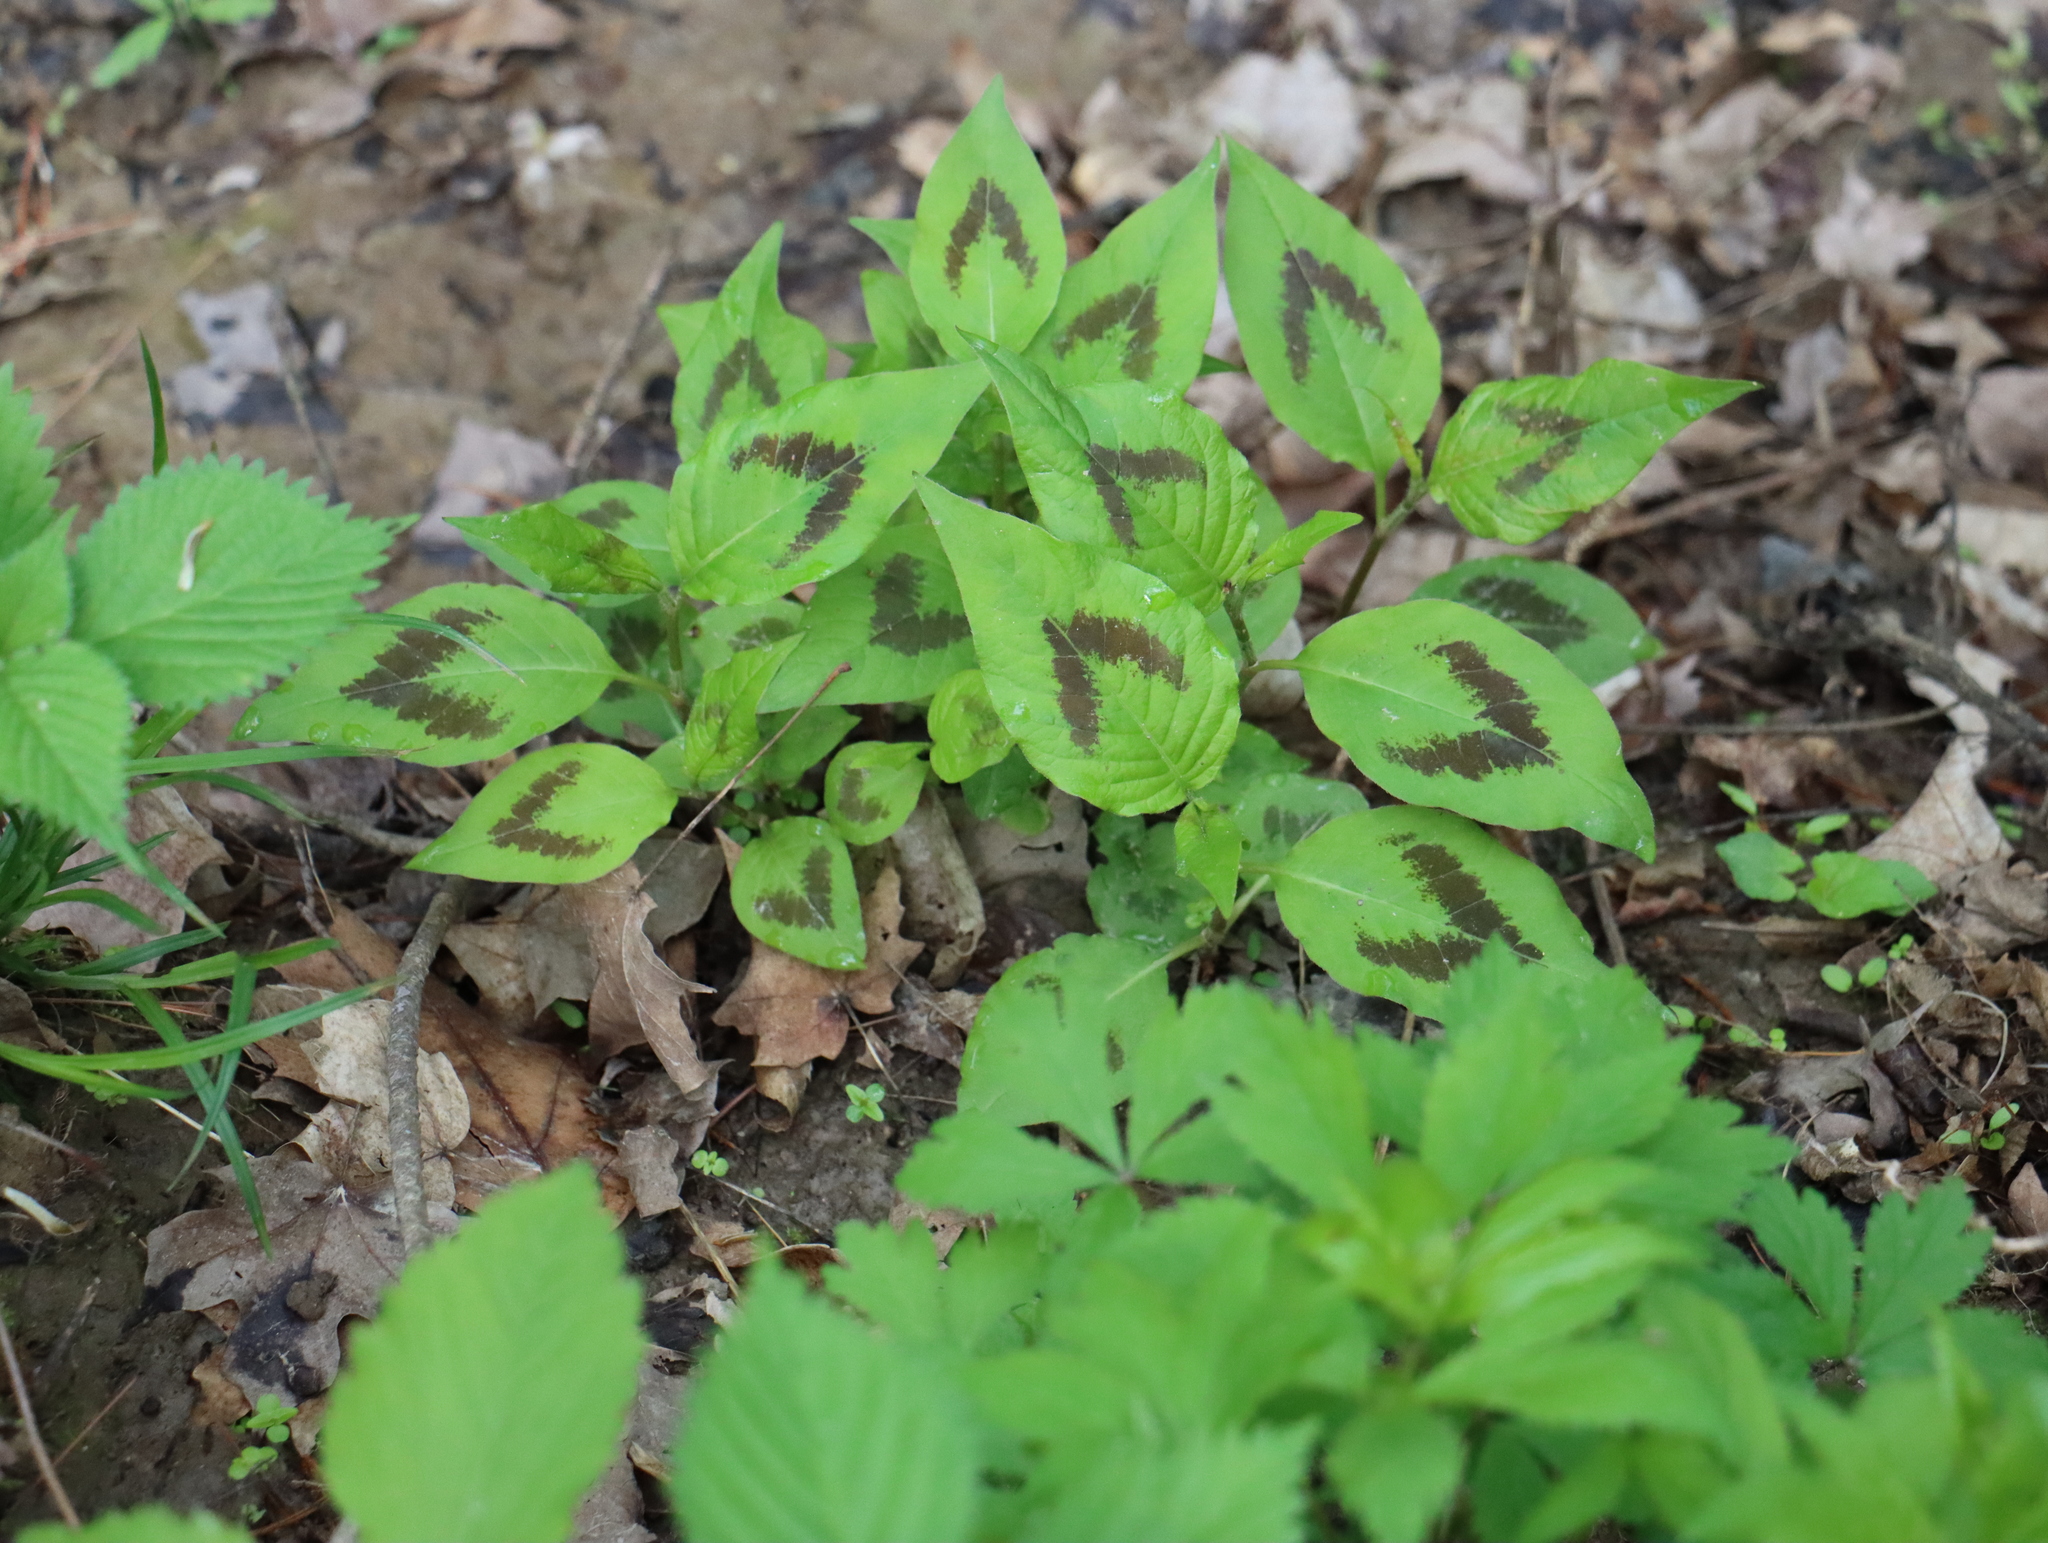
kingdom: Plantae
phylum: Tracheophyta
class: Magnoliopsida
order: Caryophyllales
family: Polygonaceae
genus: Persicaria
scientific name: Persicaria virginiana
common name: Jumpseed
